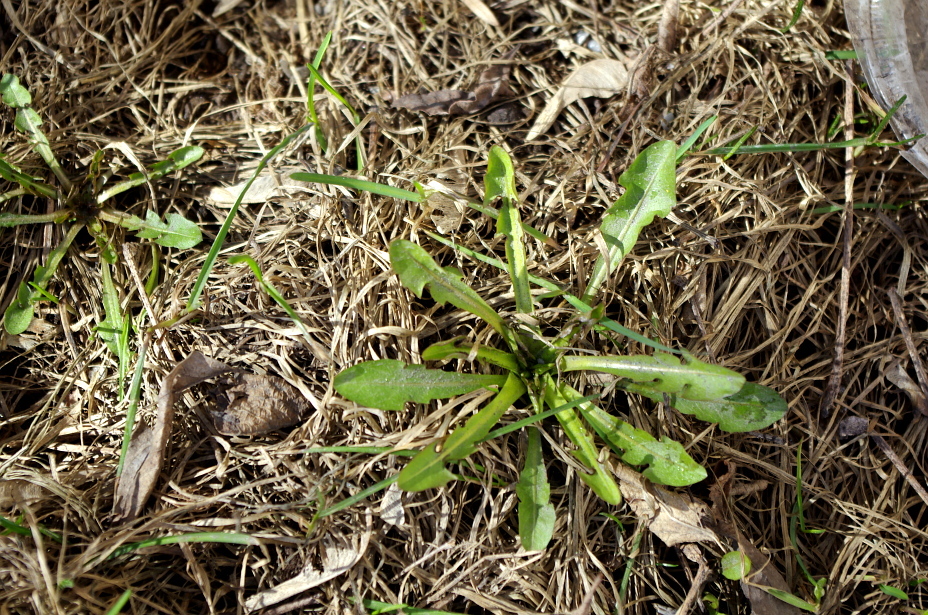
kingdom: Plantae
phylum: Tracheophyta
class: Magnoliopsida
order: Asterales
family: Asteraceae
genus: Taraxacum
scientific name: Taraxacum officinale
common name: Common dandelion
